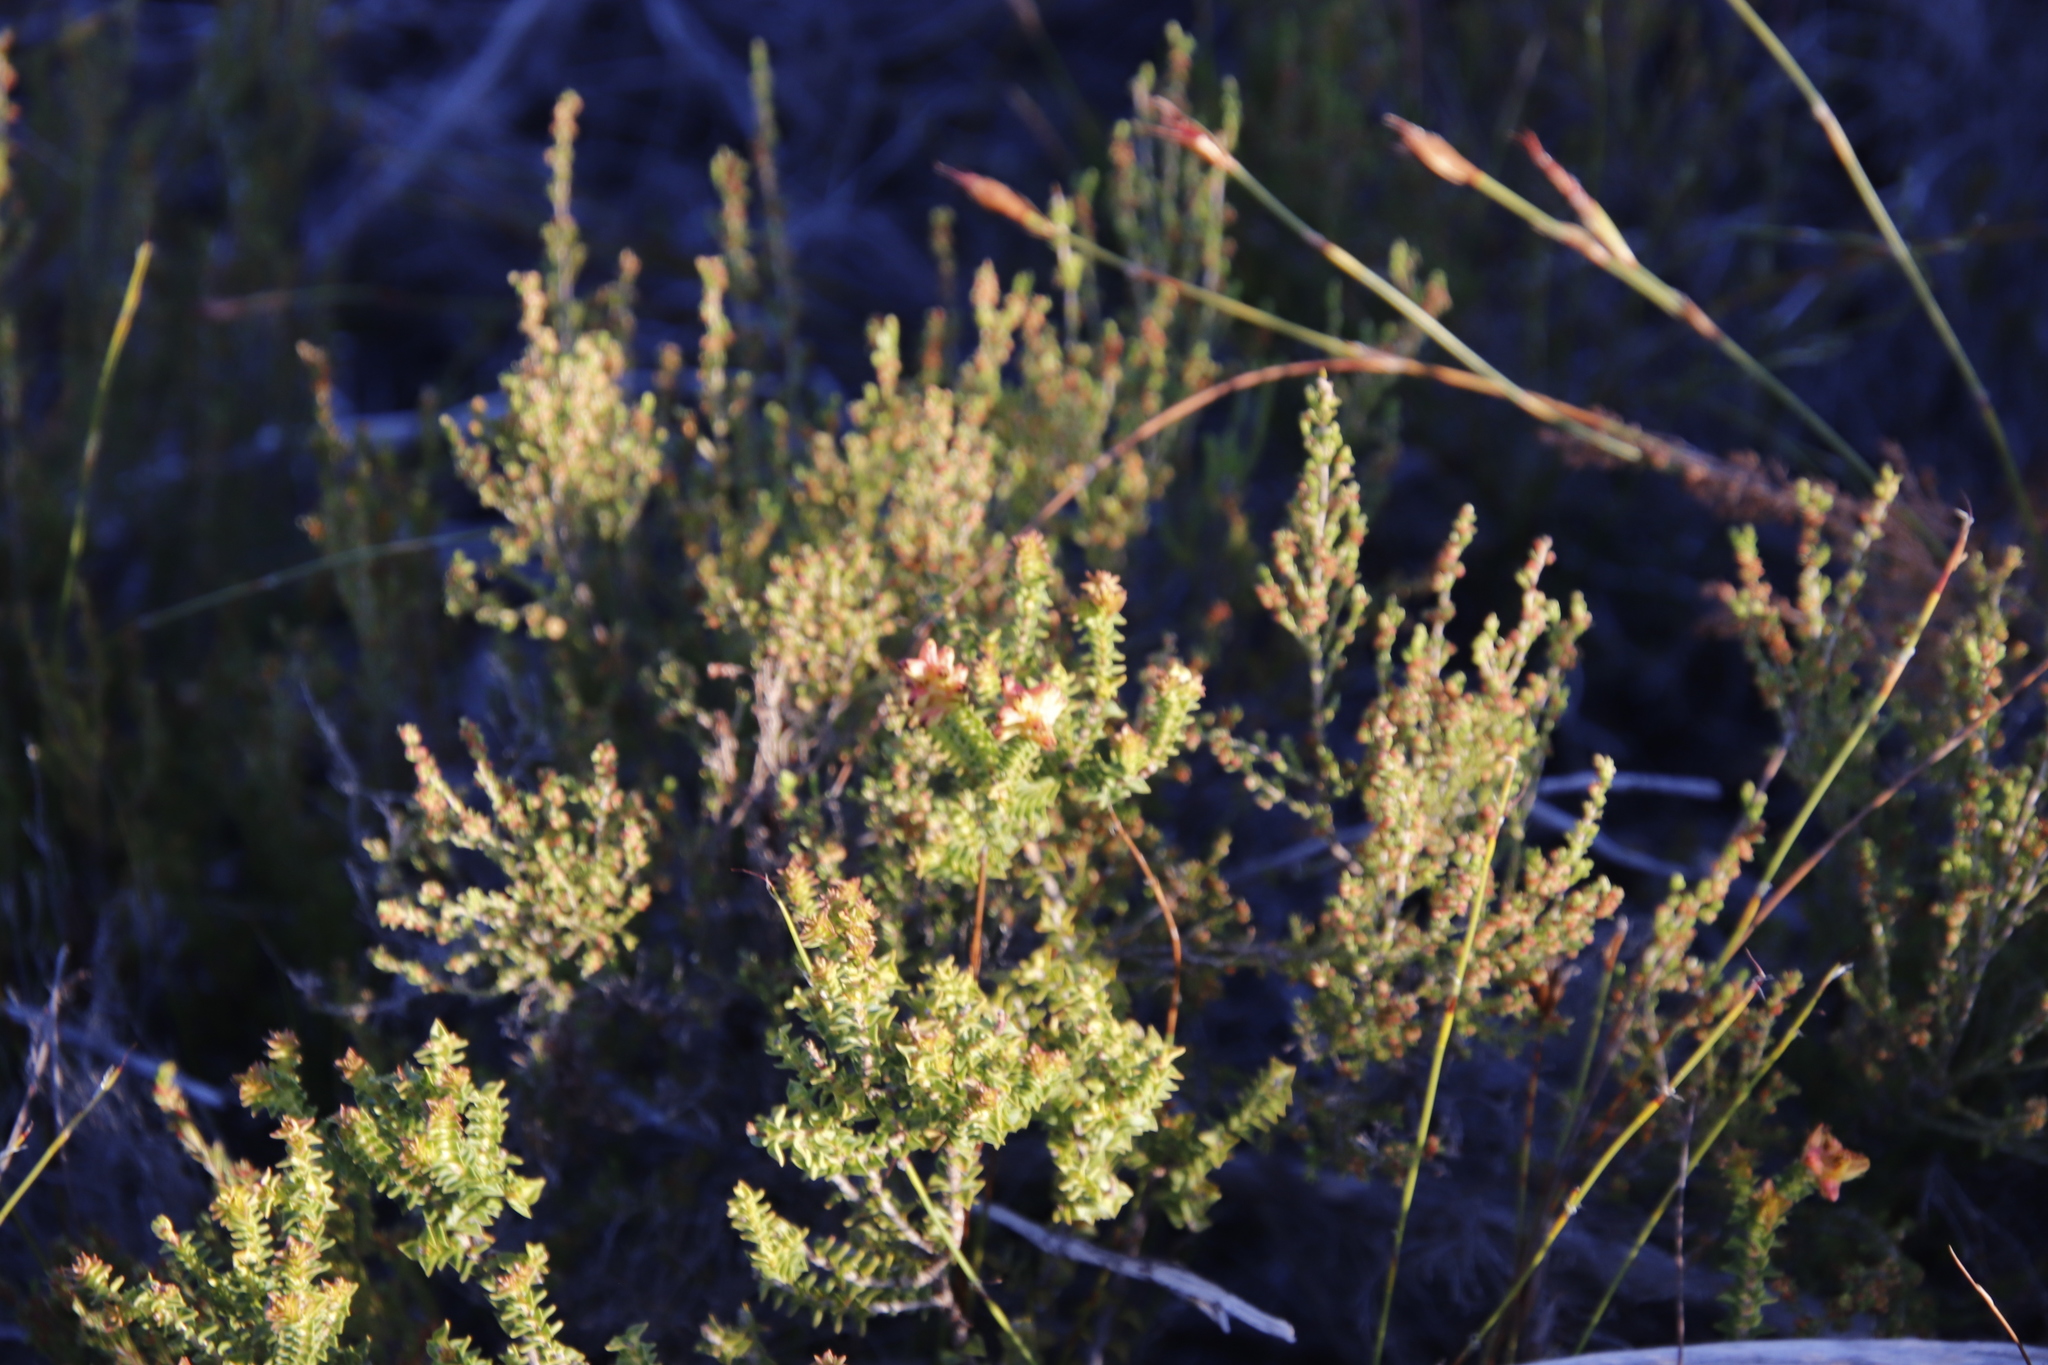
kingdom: Plantae
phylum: Tracheophyta
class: Magnoliopsida
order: Myrtales
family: Penaeaceae
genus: Penaea
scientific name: Penaea mucronata
